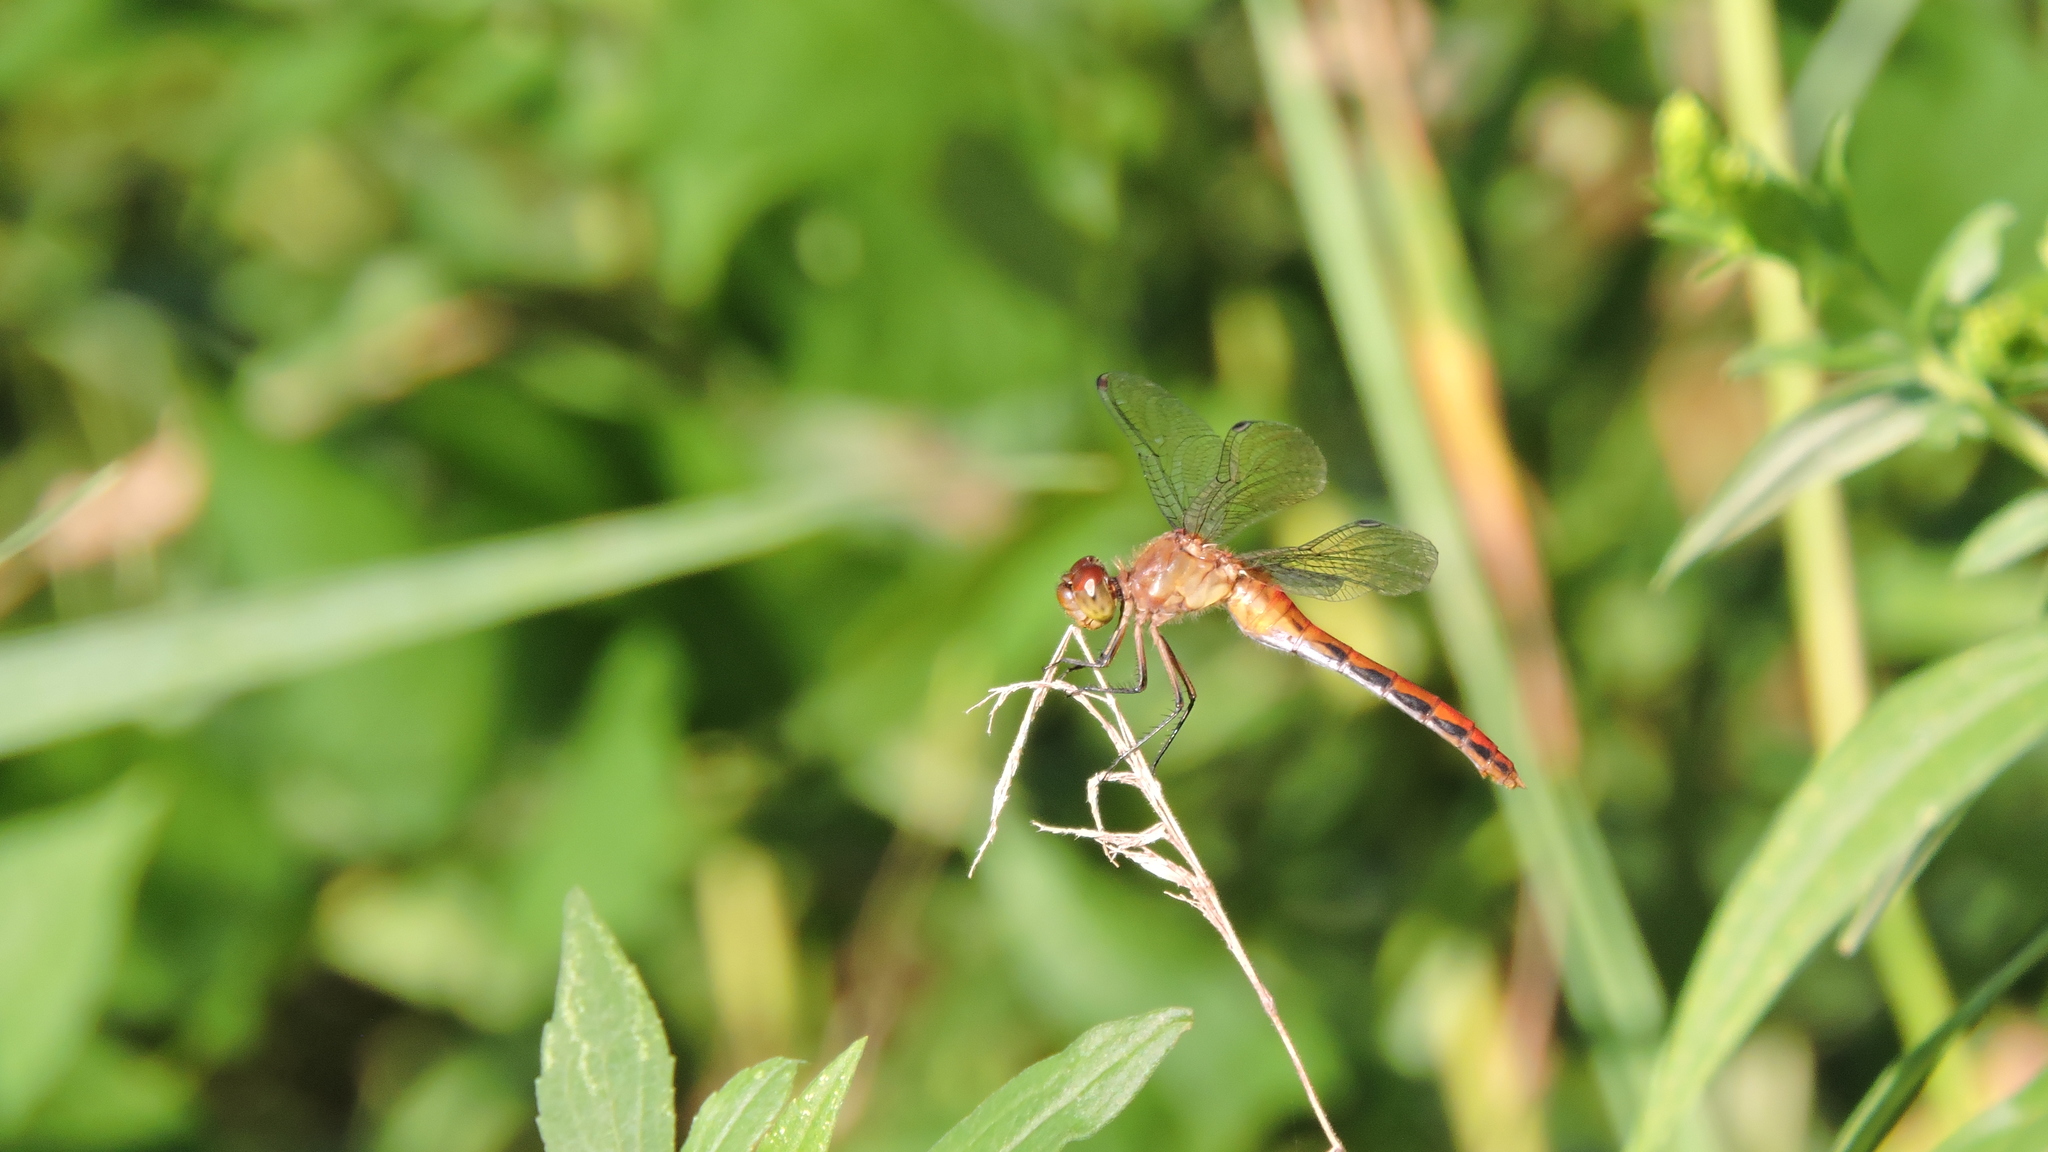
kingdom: Animalia
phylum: Arthropoda
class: Insecta
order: Odonata
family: Libellulidae
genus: Sympetrum
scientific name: Sympetrum
